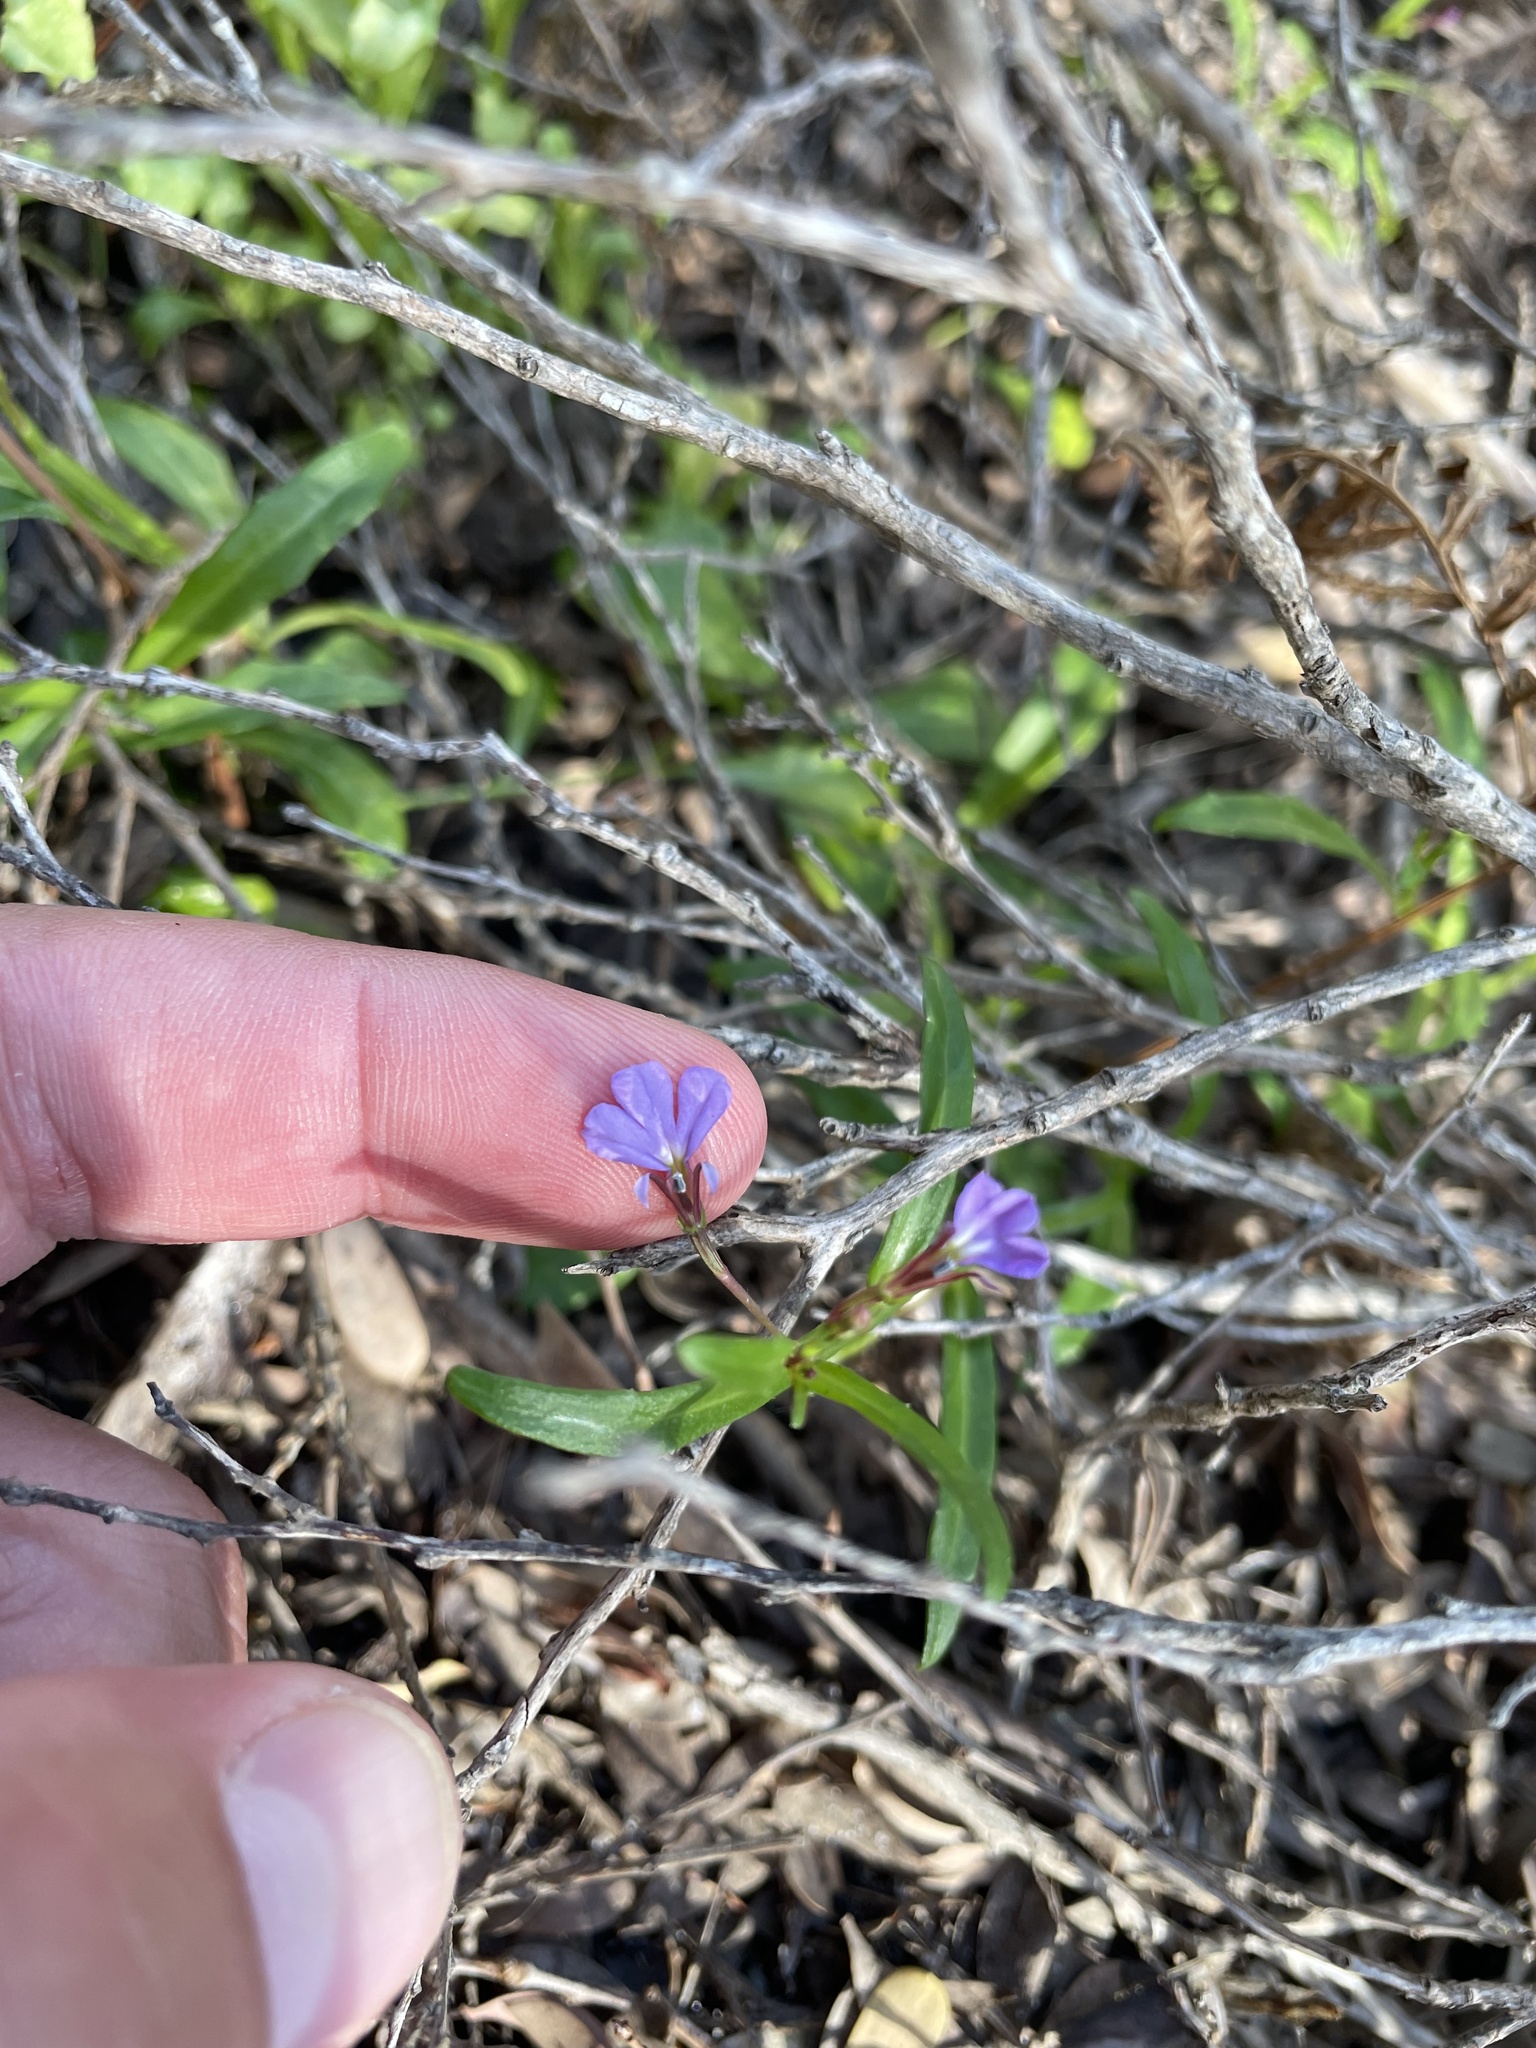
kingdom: Plantae
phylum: Tracheophyta
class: Magnoliopsida
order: Asterales
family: Campanulaceae
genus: Lobelia
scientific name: Lobelia anceps
